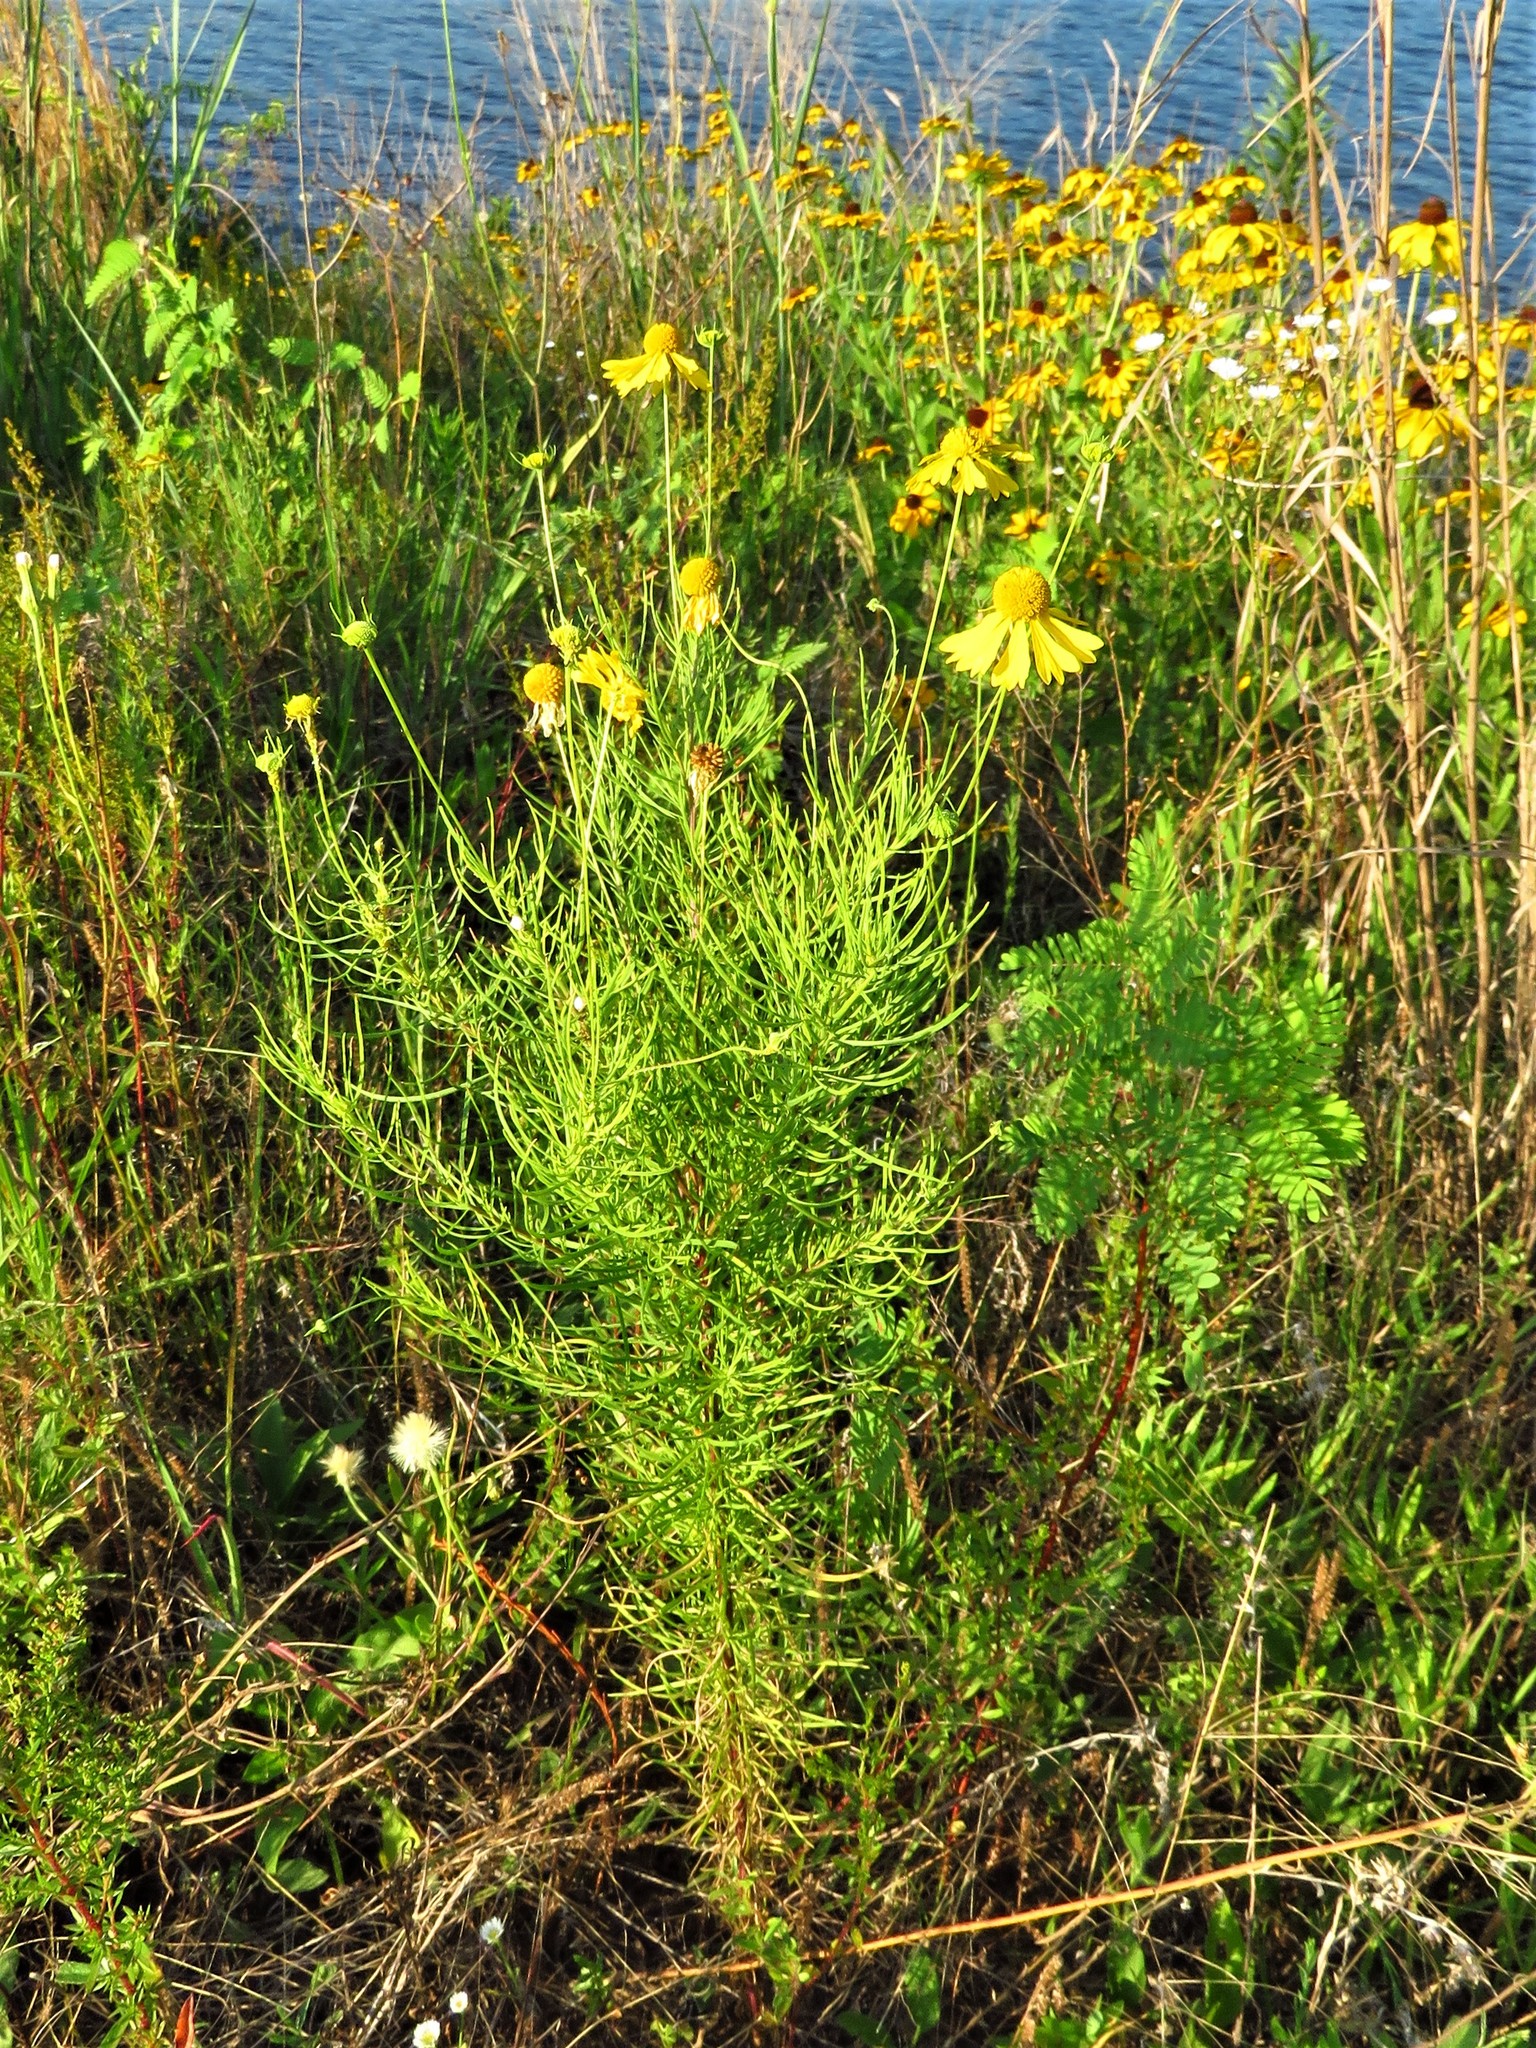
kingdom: Plantae
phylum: Tracheophyta
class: Magnoliopsida
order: Asterales
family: Asteraceae
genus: Helenium
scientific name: Helenium amarum
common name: Bitter sneezeweed
